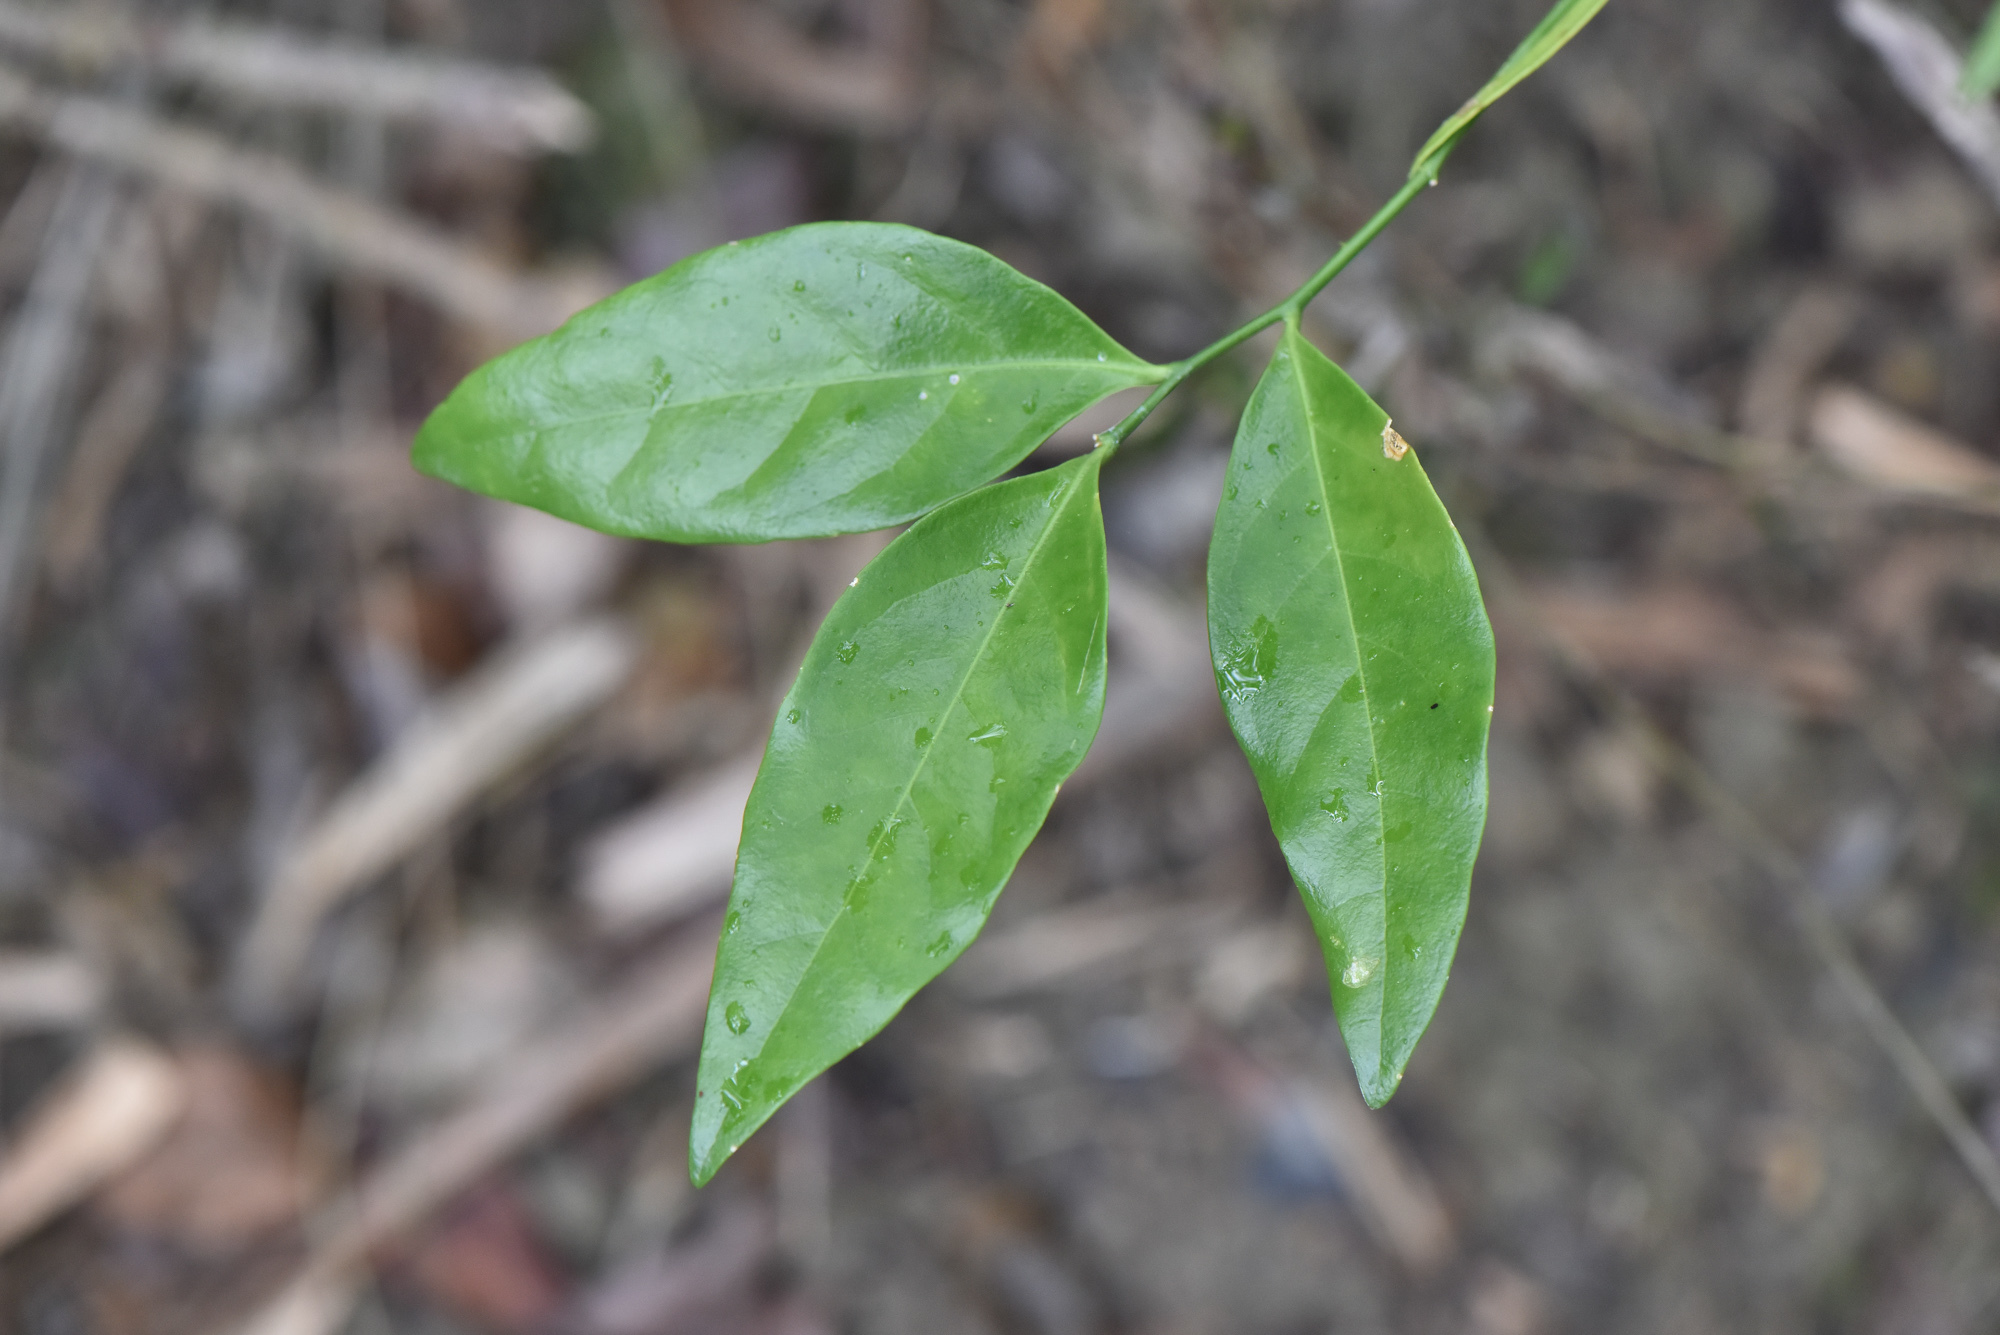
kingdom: Plantae
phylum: Tracheophyta
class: Magnoliopsida
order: Santalales
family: Opiliaceae
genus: Champereia
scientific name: Champereia manillana
